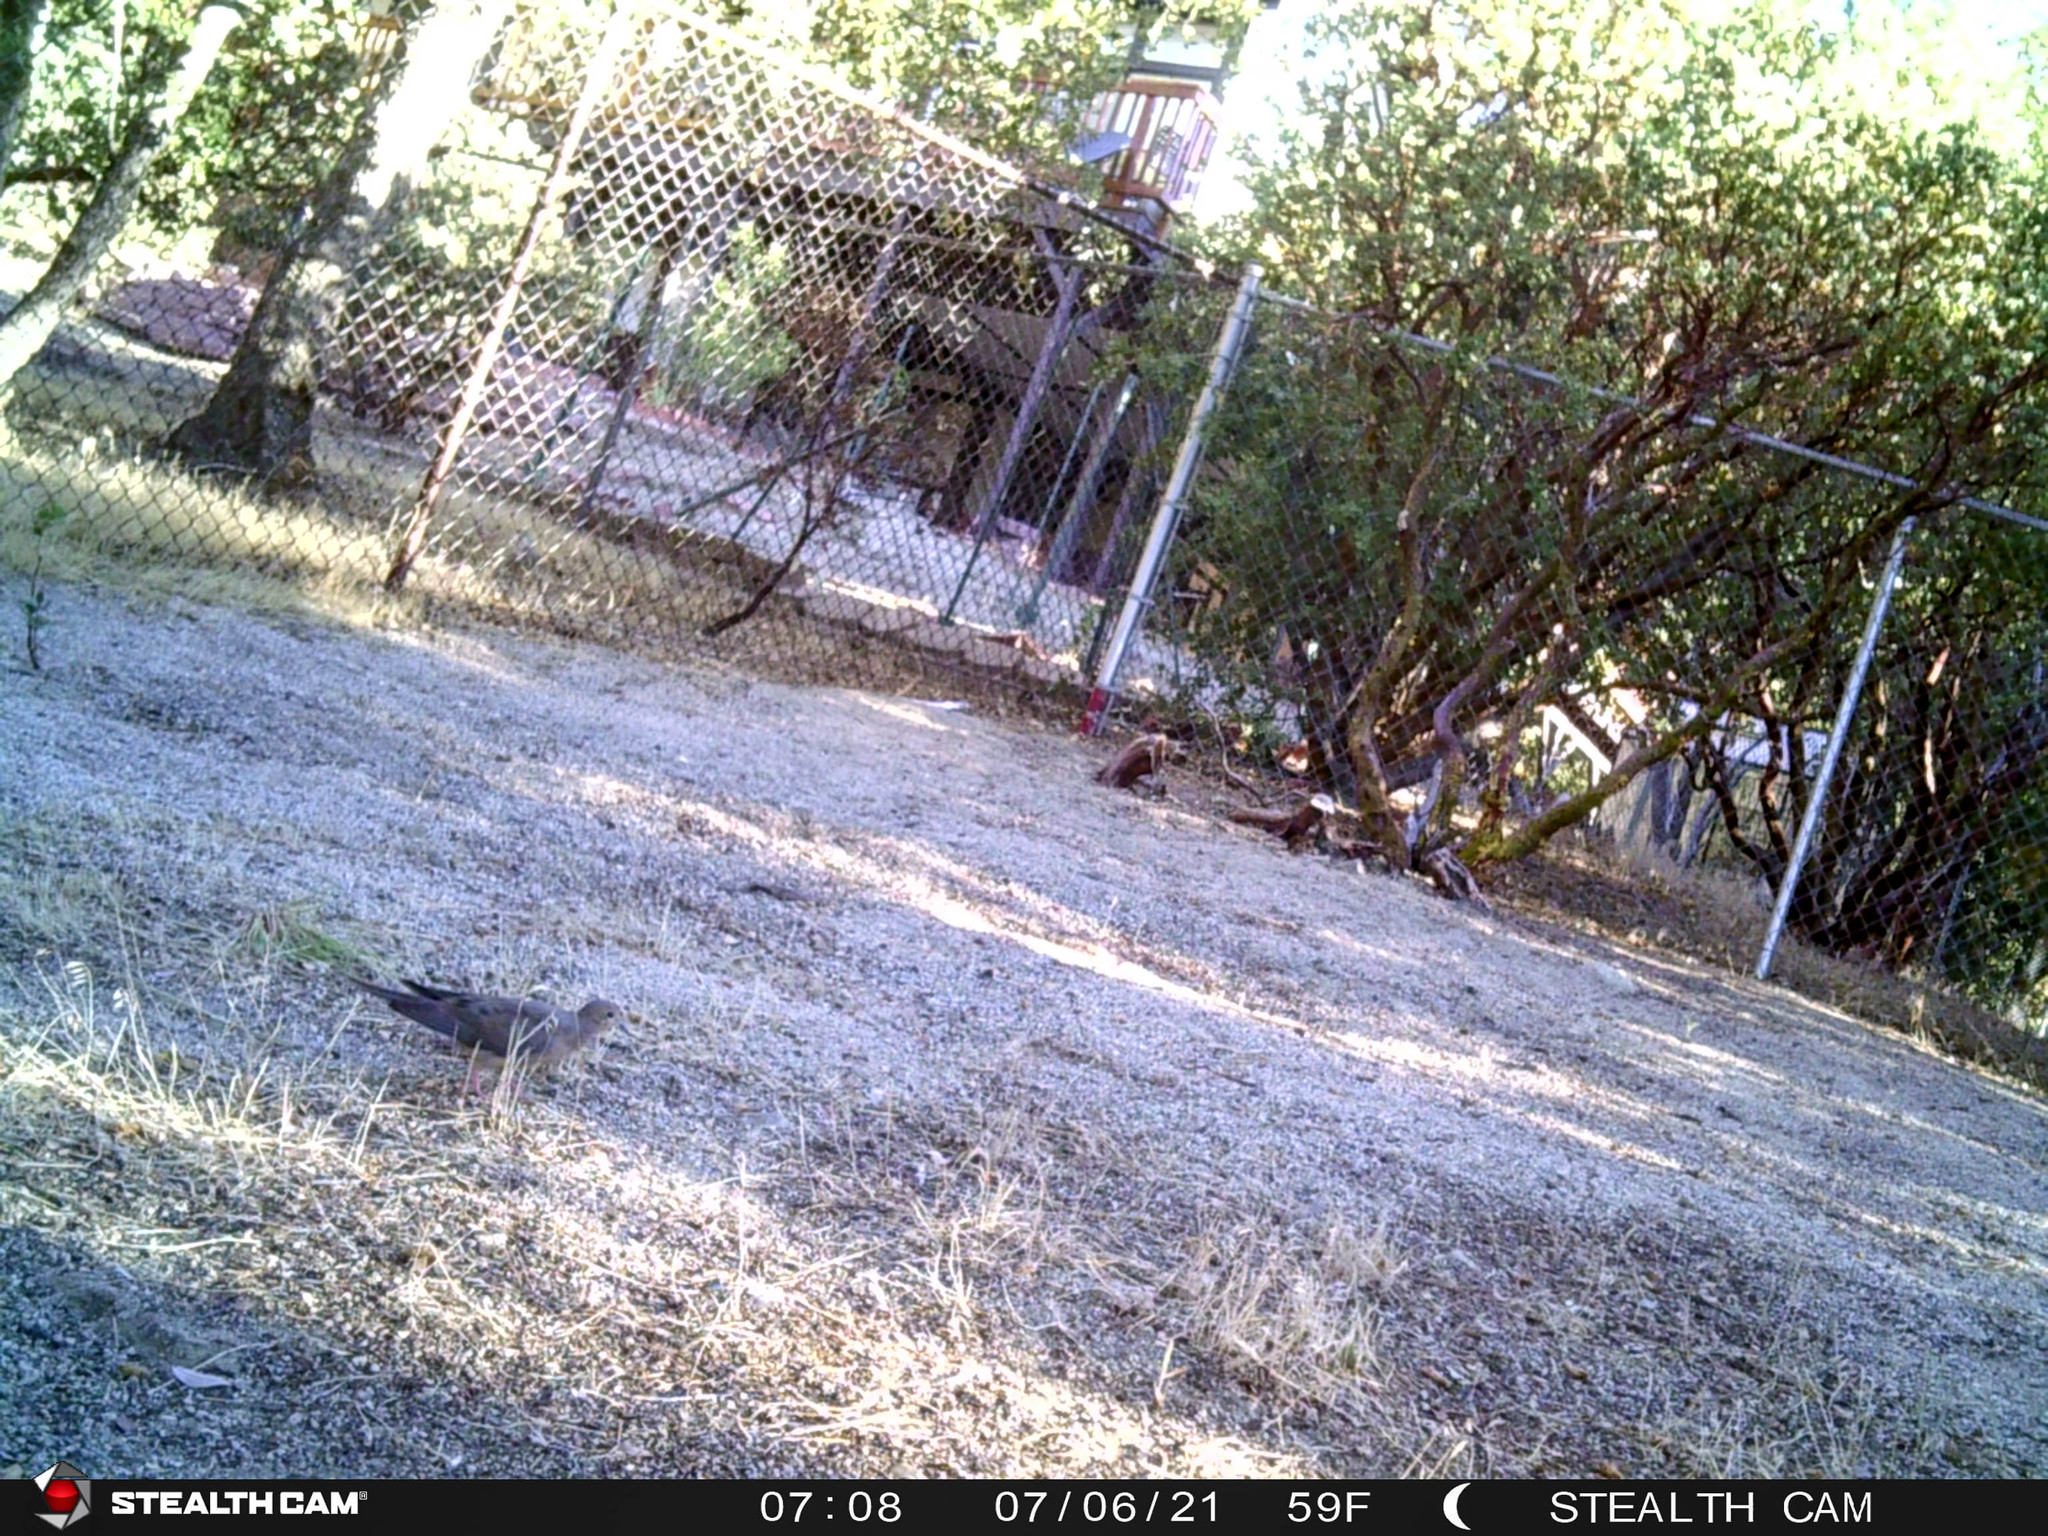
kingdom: Animalia
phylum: Chordata
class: Aves
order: Columbiformes
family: Columbidae
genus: Zenaida
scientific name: Zenaida macroura
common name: Mourning dove
